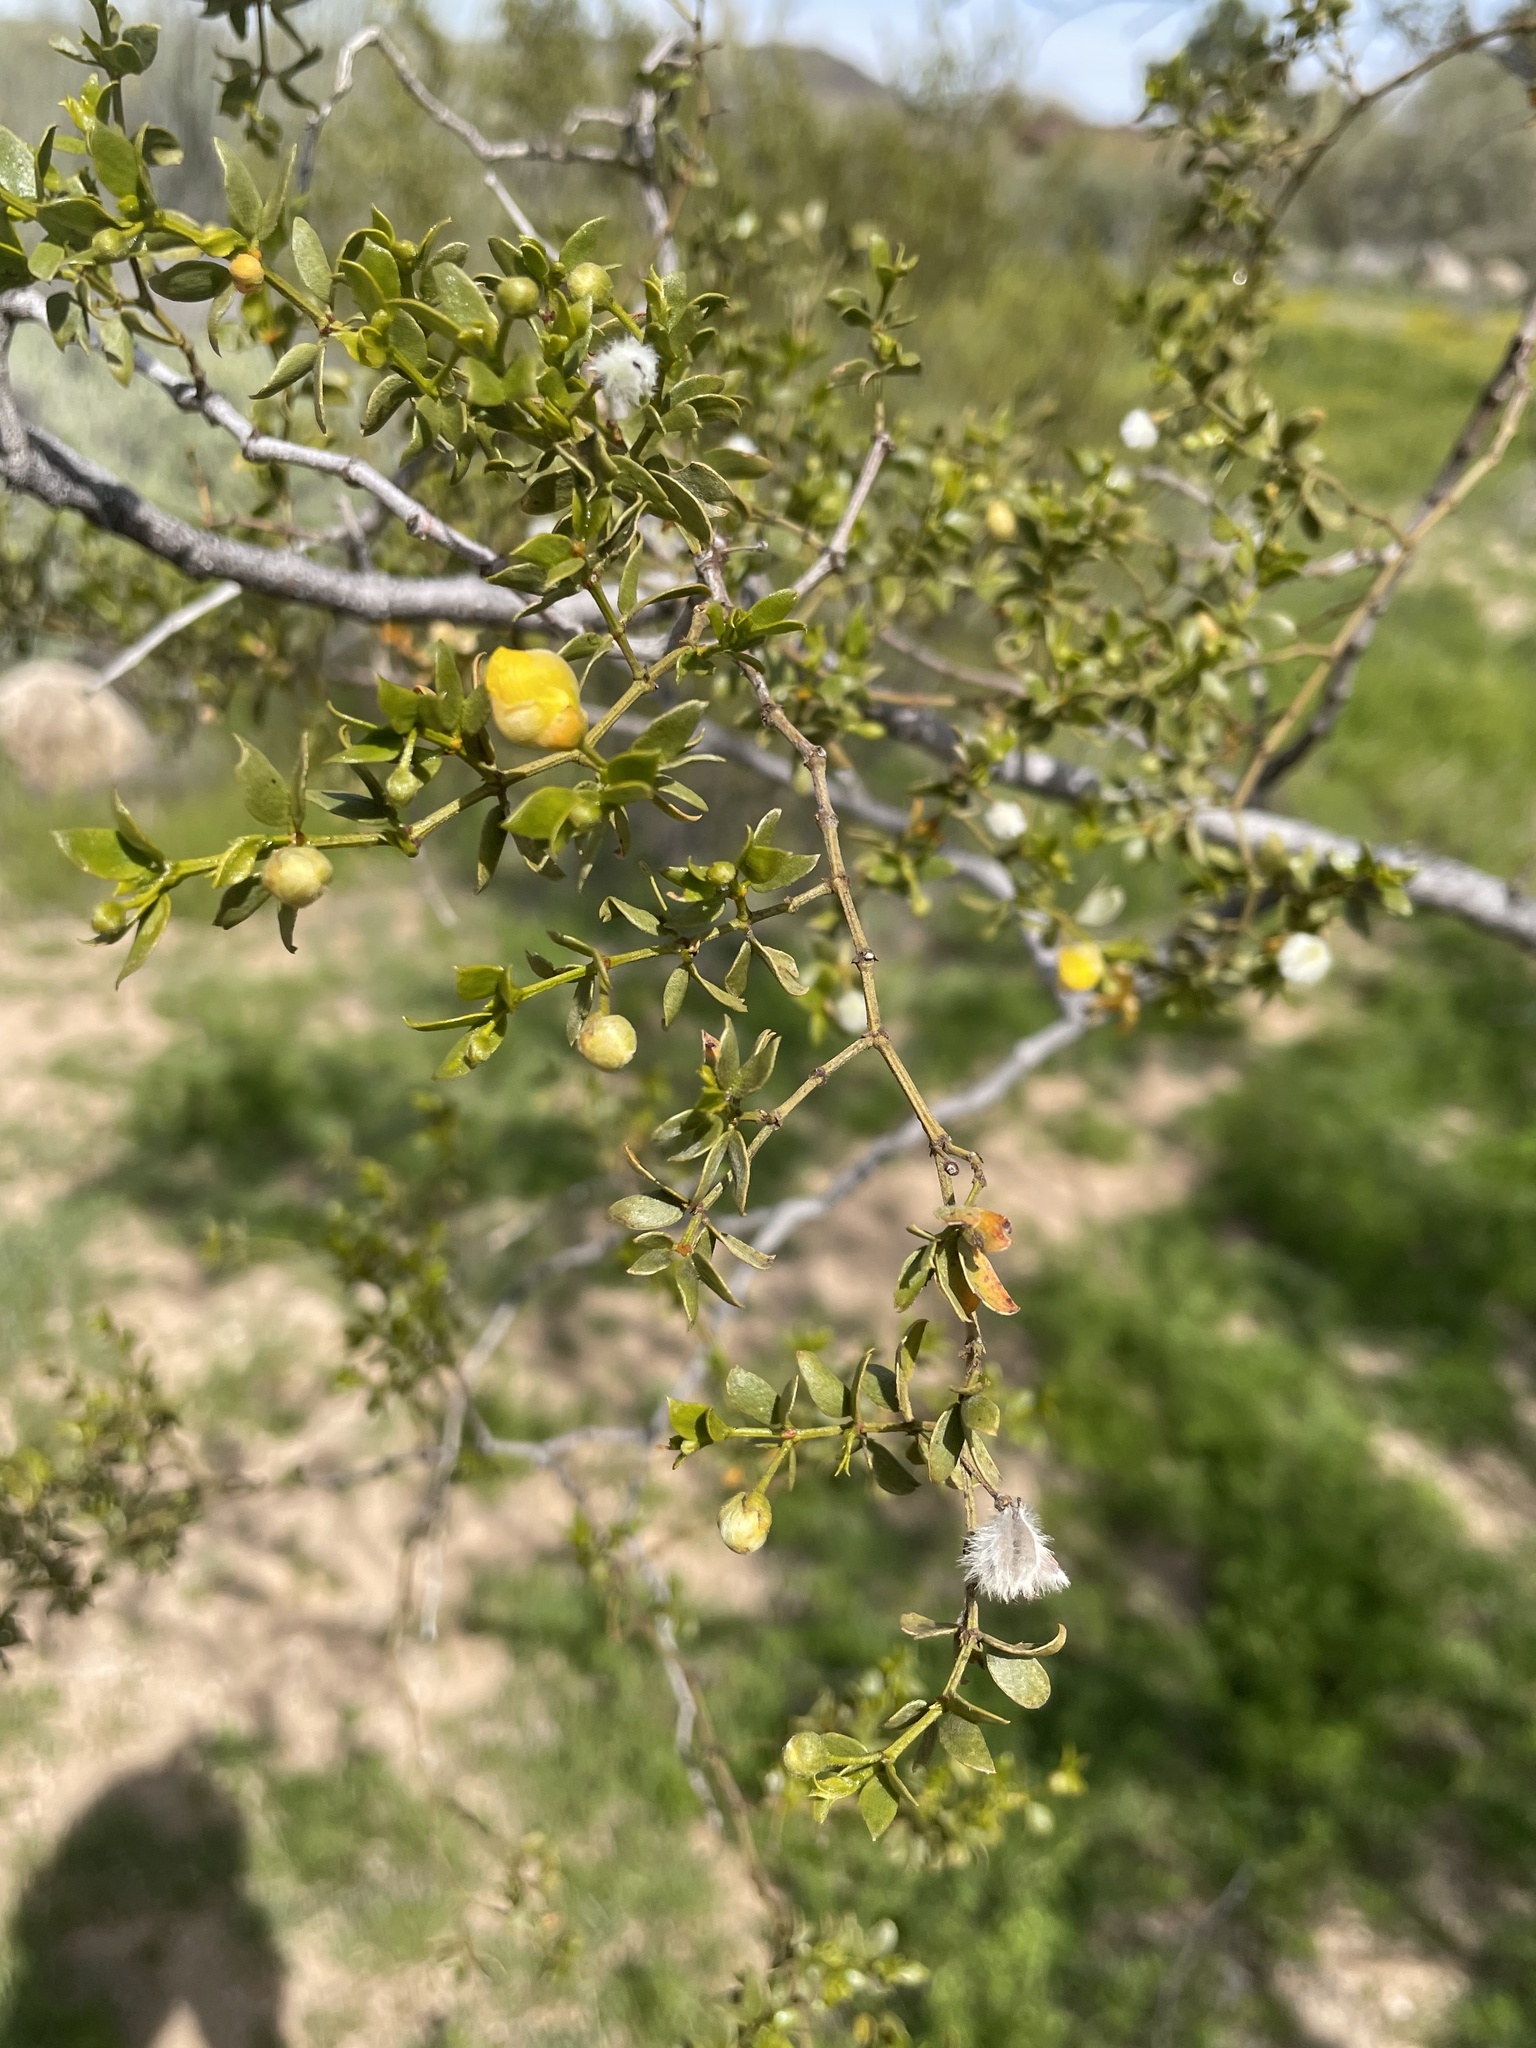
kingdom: Plantae
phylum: Tracheophyta
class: Magnoliopsida
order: Zygophyllales
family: Zygophyllaceae
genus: Larrea
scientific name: Larrea tridentata
